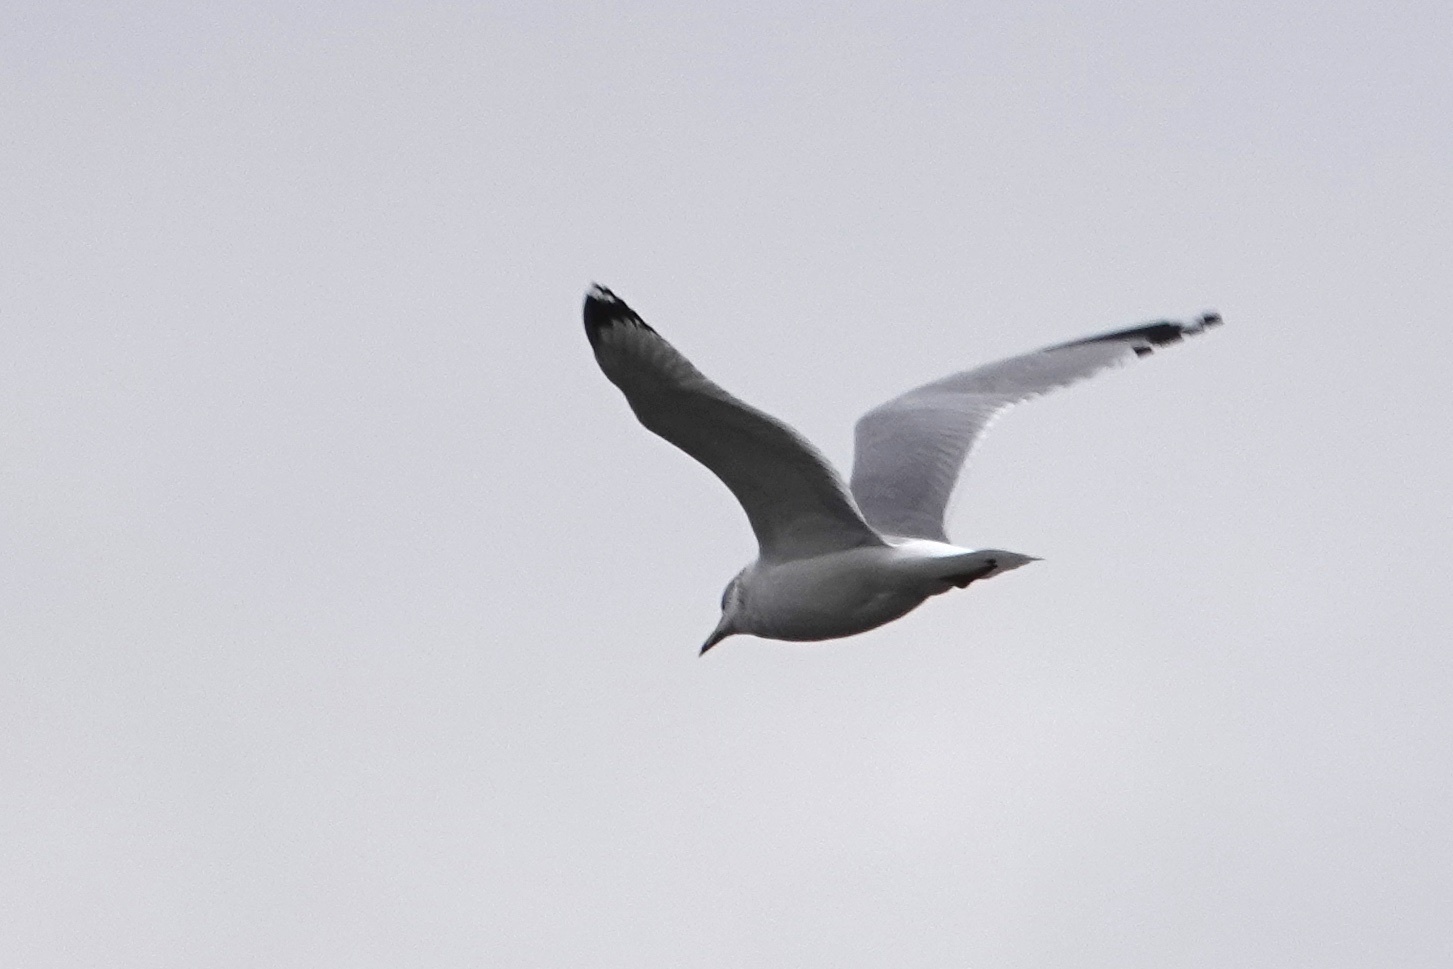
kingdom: Animalia
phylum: Chordata
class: Aves
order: Charadriiformes
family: Laridae
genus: Larus
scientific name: Larus delawarensis
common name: Ring-billed gull
